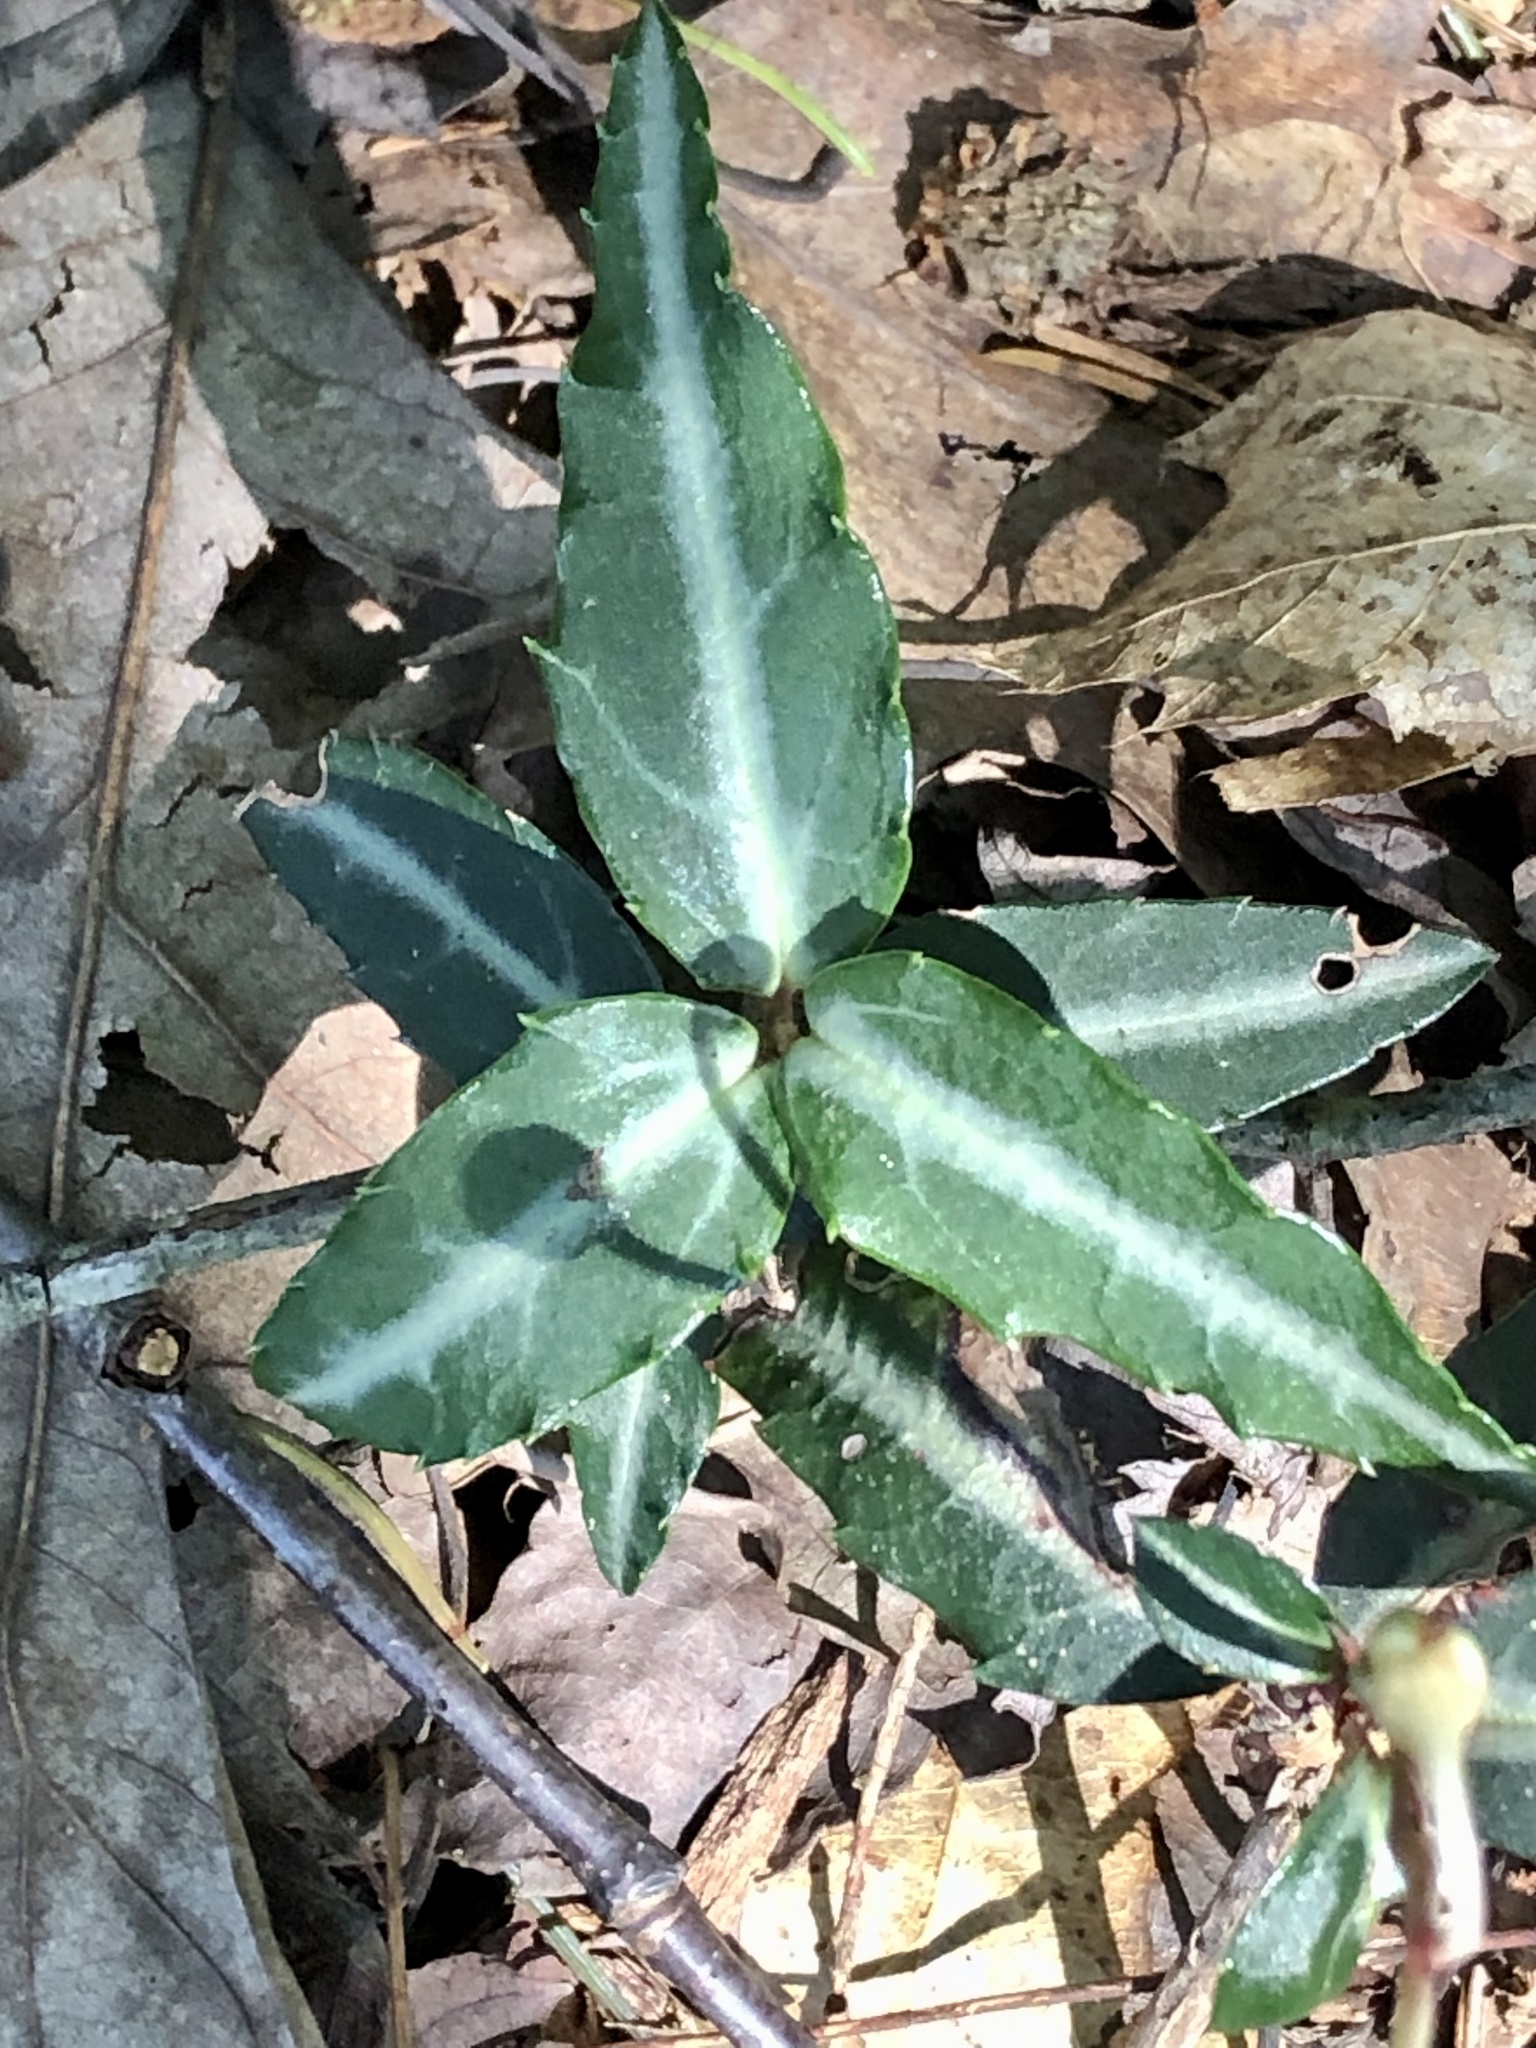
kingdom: Plantae
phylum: Tracheophyta
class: Magnoliopsida
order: Ericales
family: Ericaceae
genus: Chimaphila
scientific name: Chimaphila maculata
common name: Spotted pipsissewa
